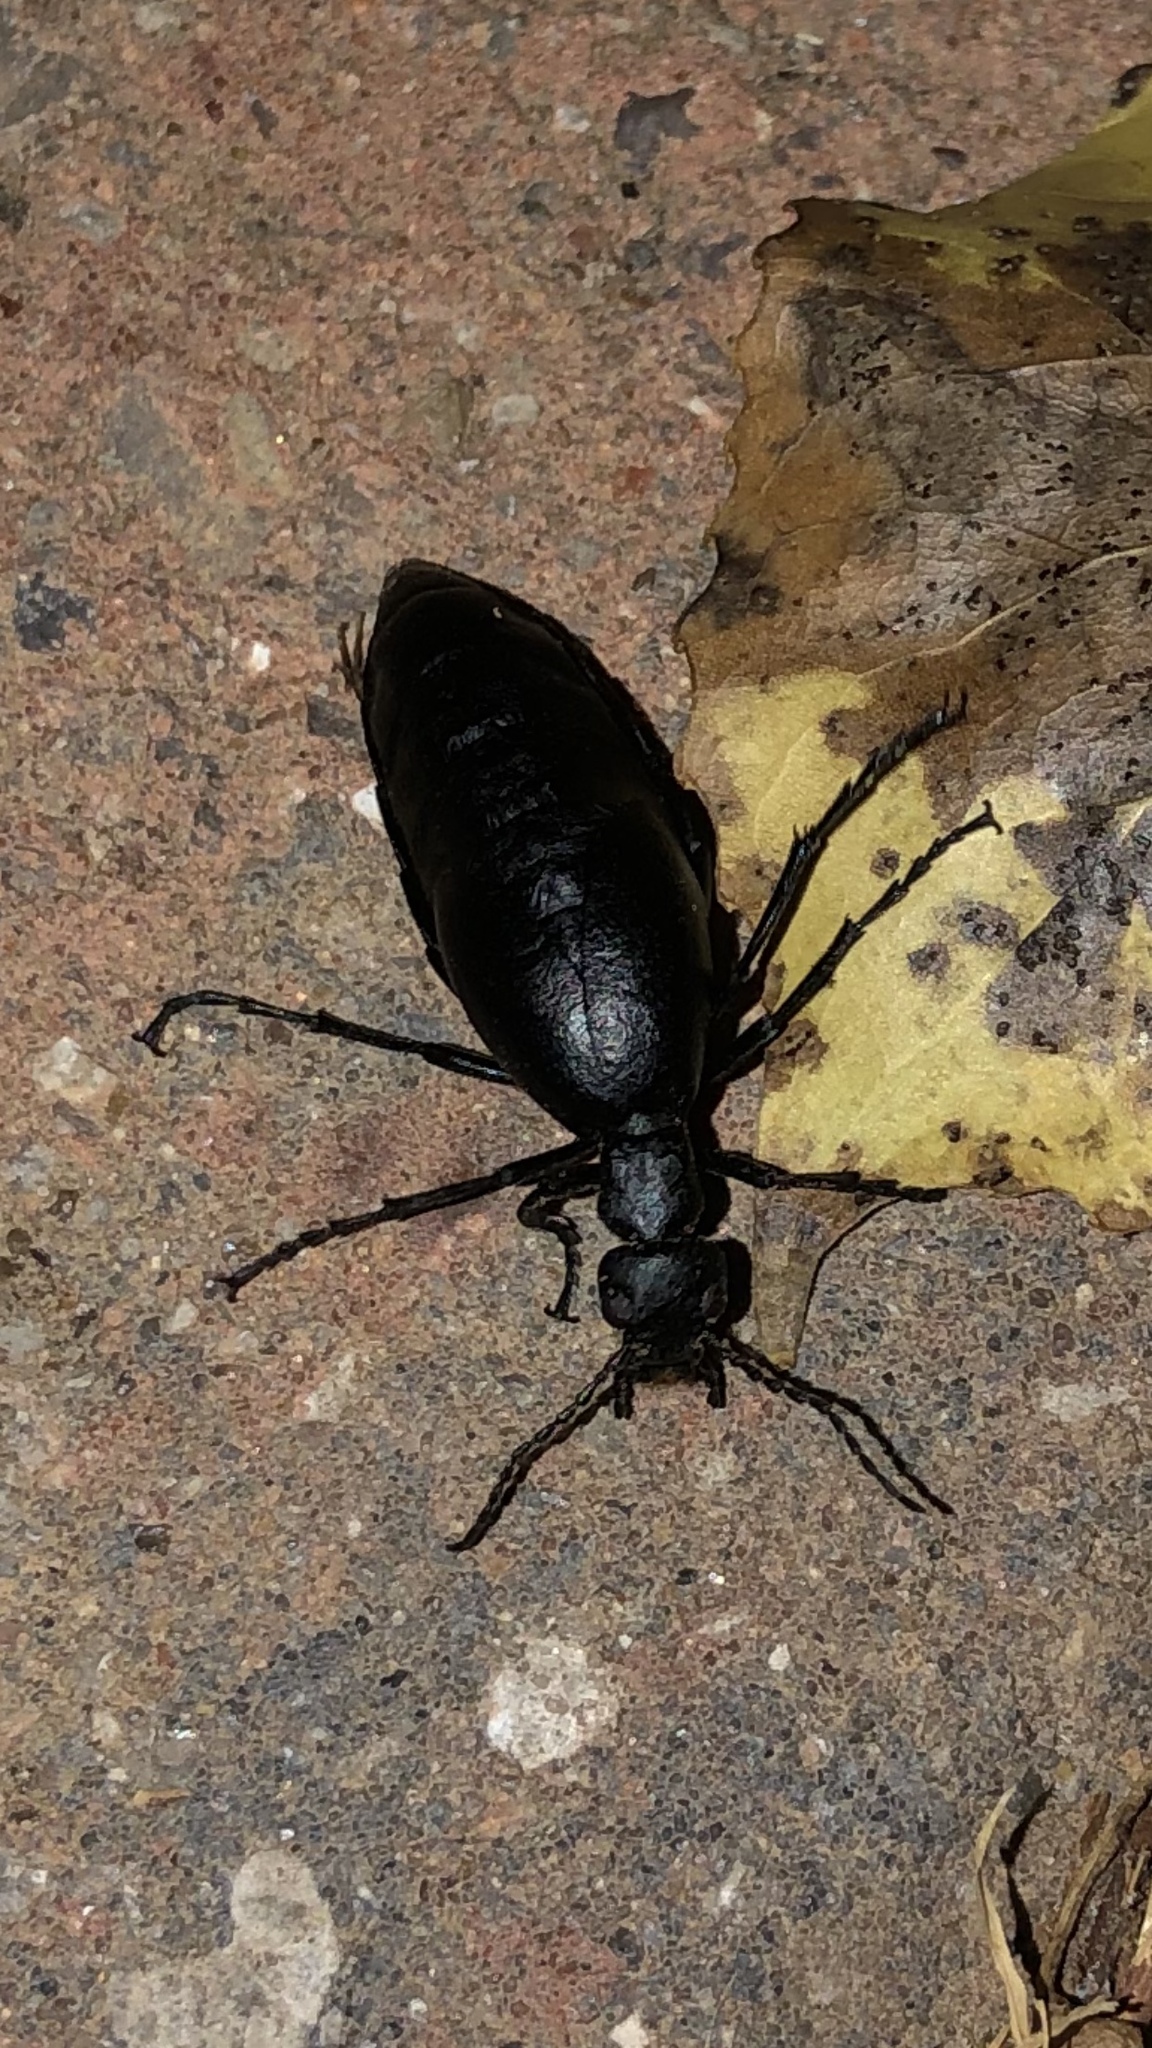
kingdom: Animalia
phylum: Arthropoda
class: Insecta
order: Coleoptera
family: Meloidae
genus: Meloe
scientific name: Meloe americanus
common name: Buttercup oil beetle
